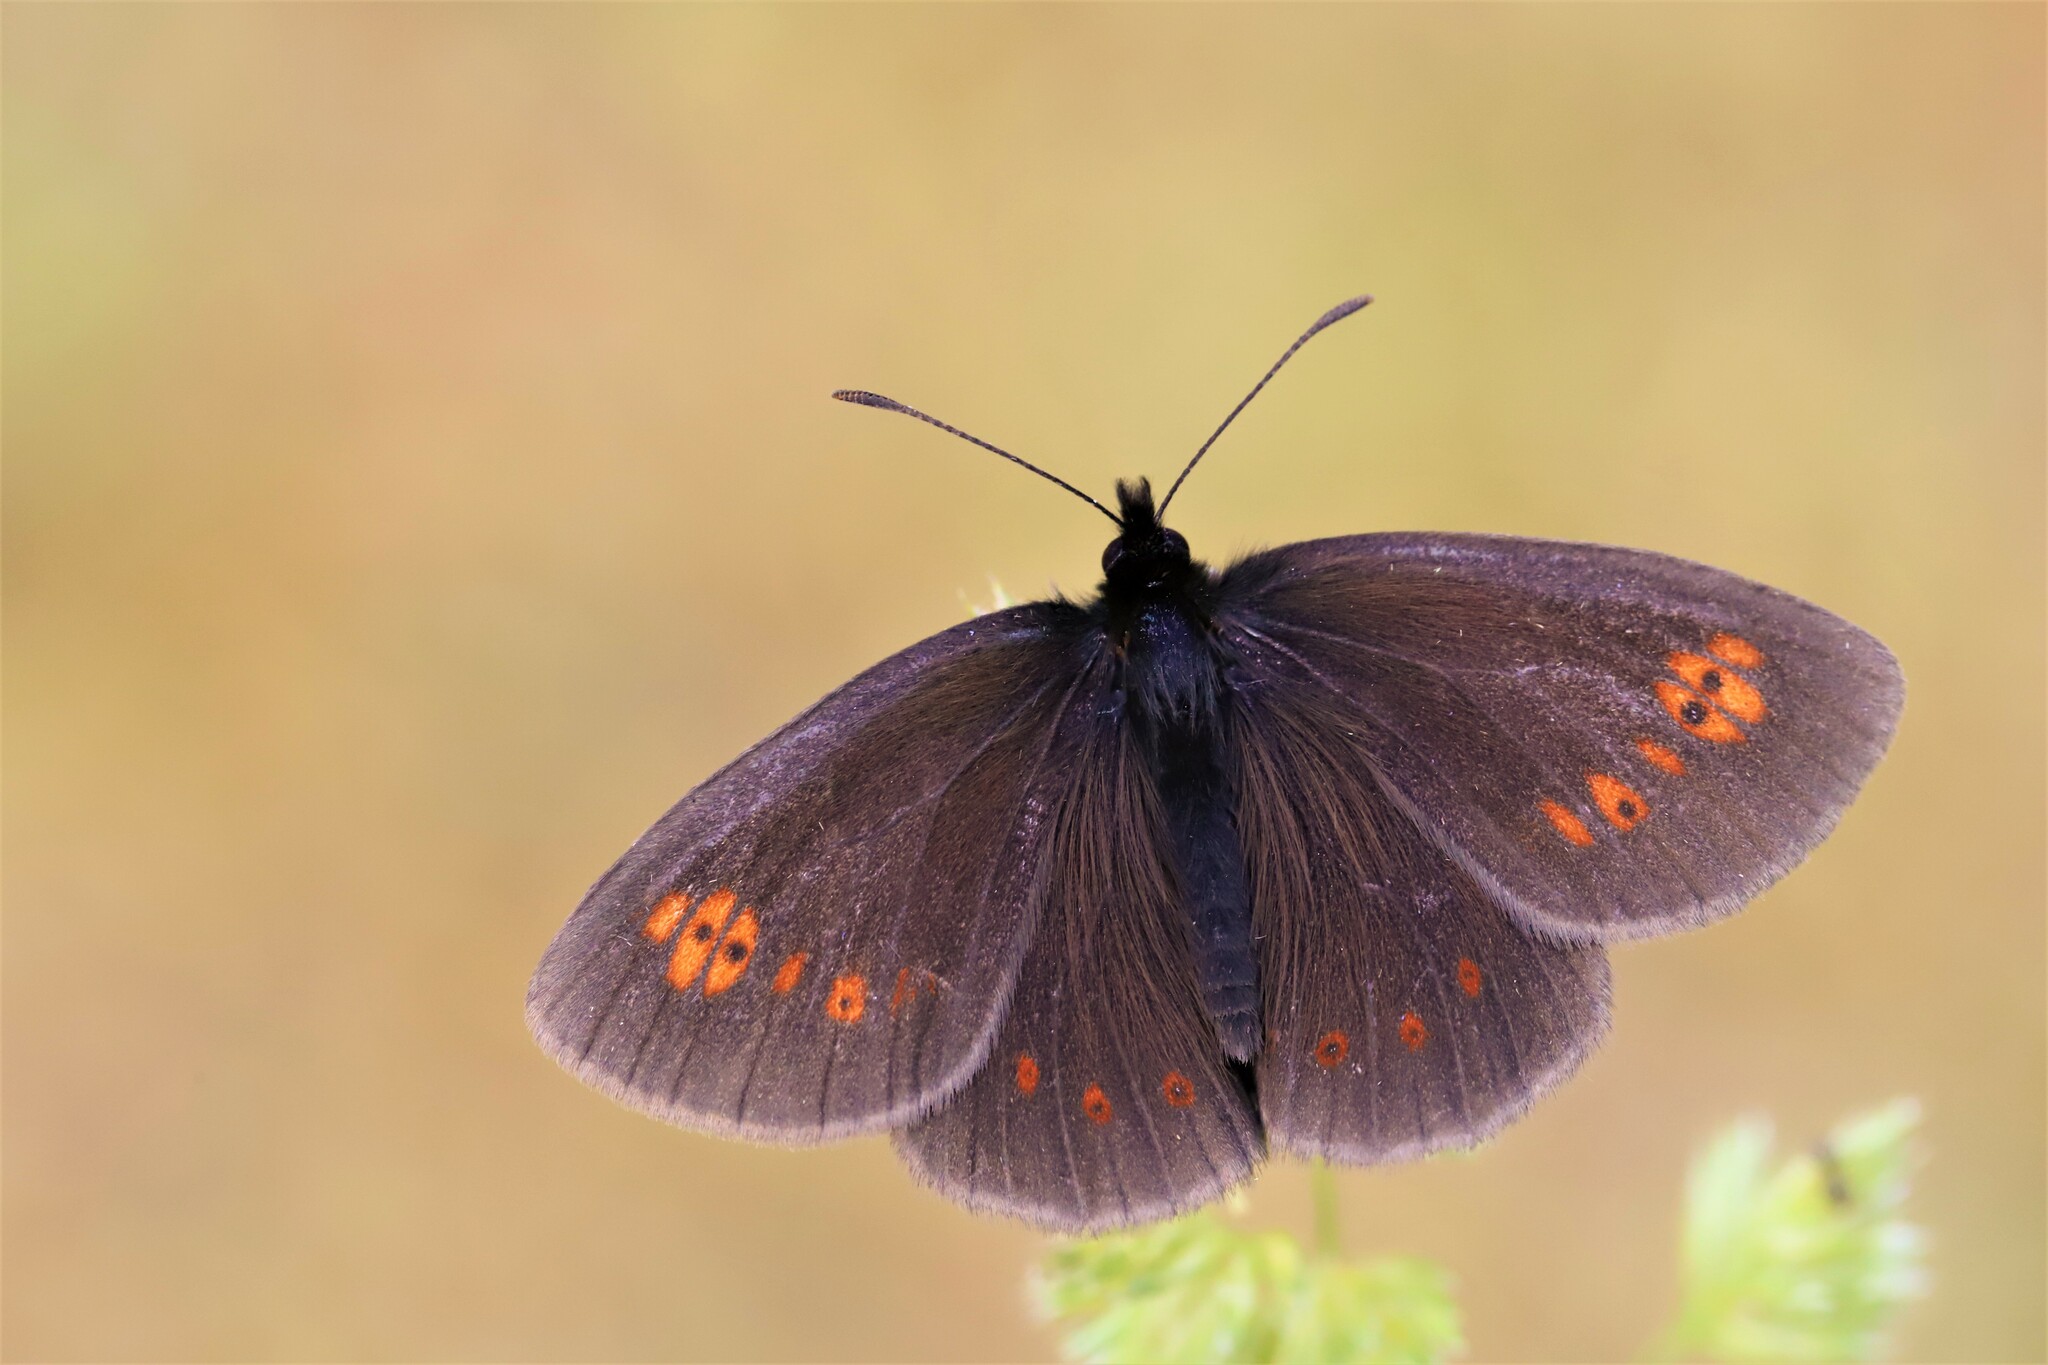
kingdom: Animalia
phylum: Arthropoda
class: Insecta
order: Lepidoptera
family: Nymphalidae
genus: Erebia
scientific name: Erebia alberganus
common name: Almond-eyed ringlet
